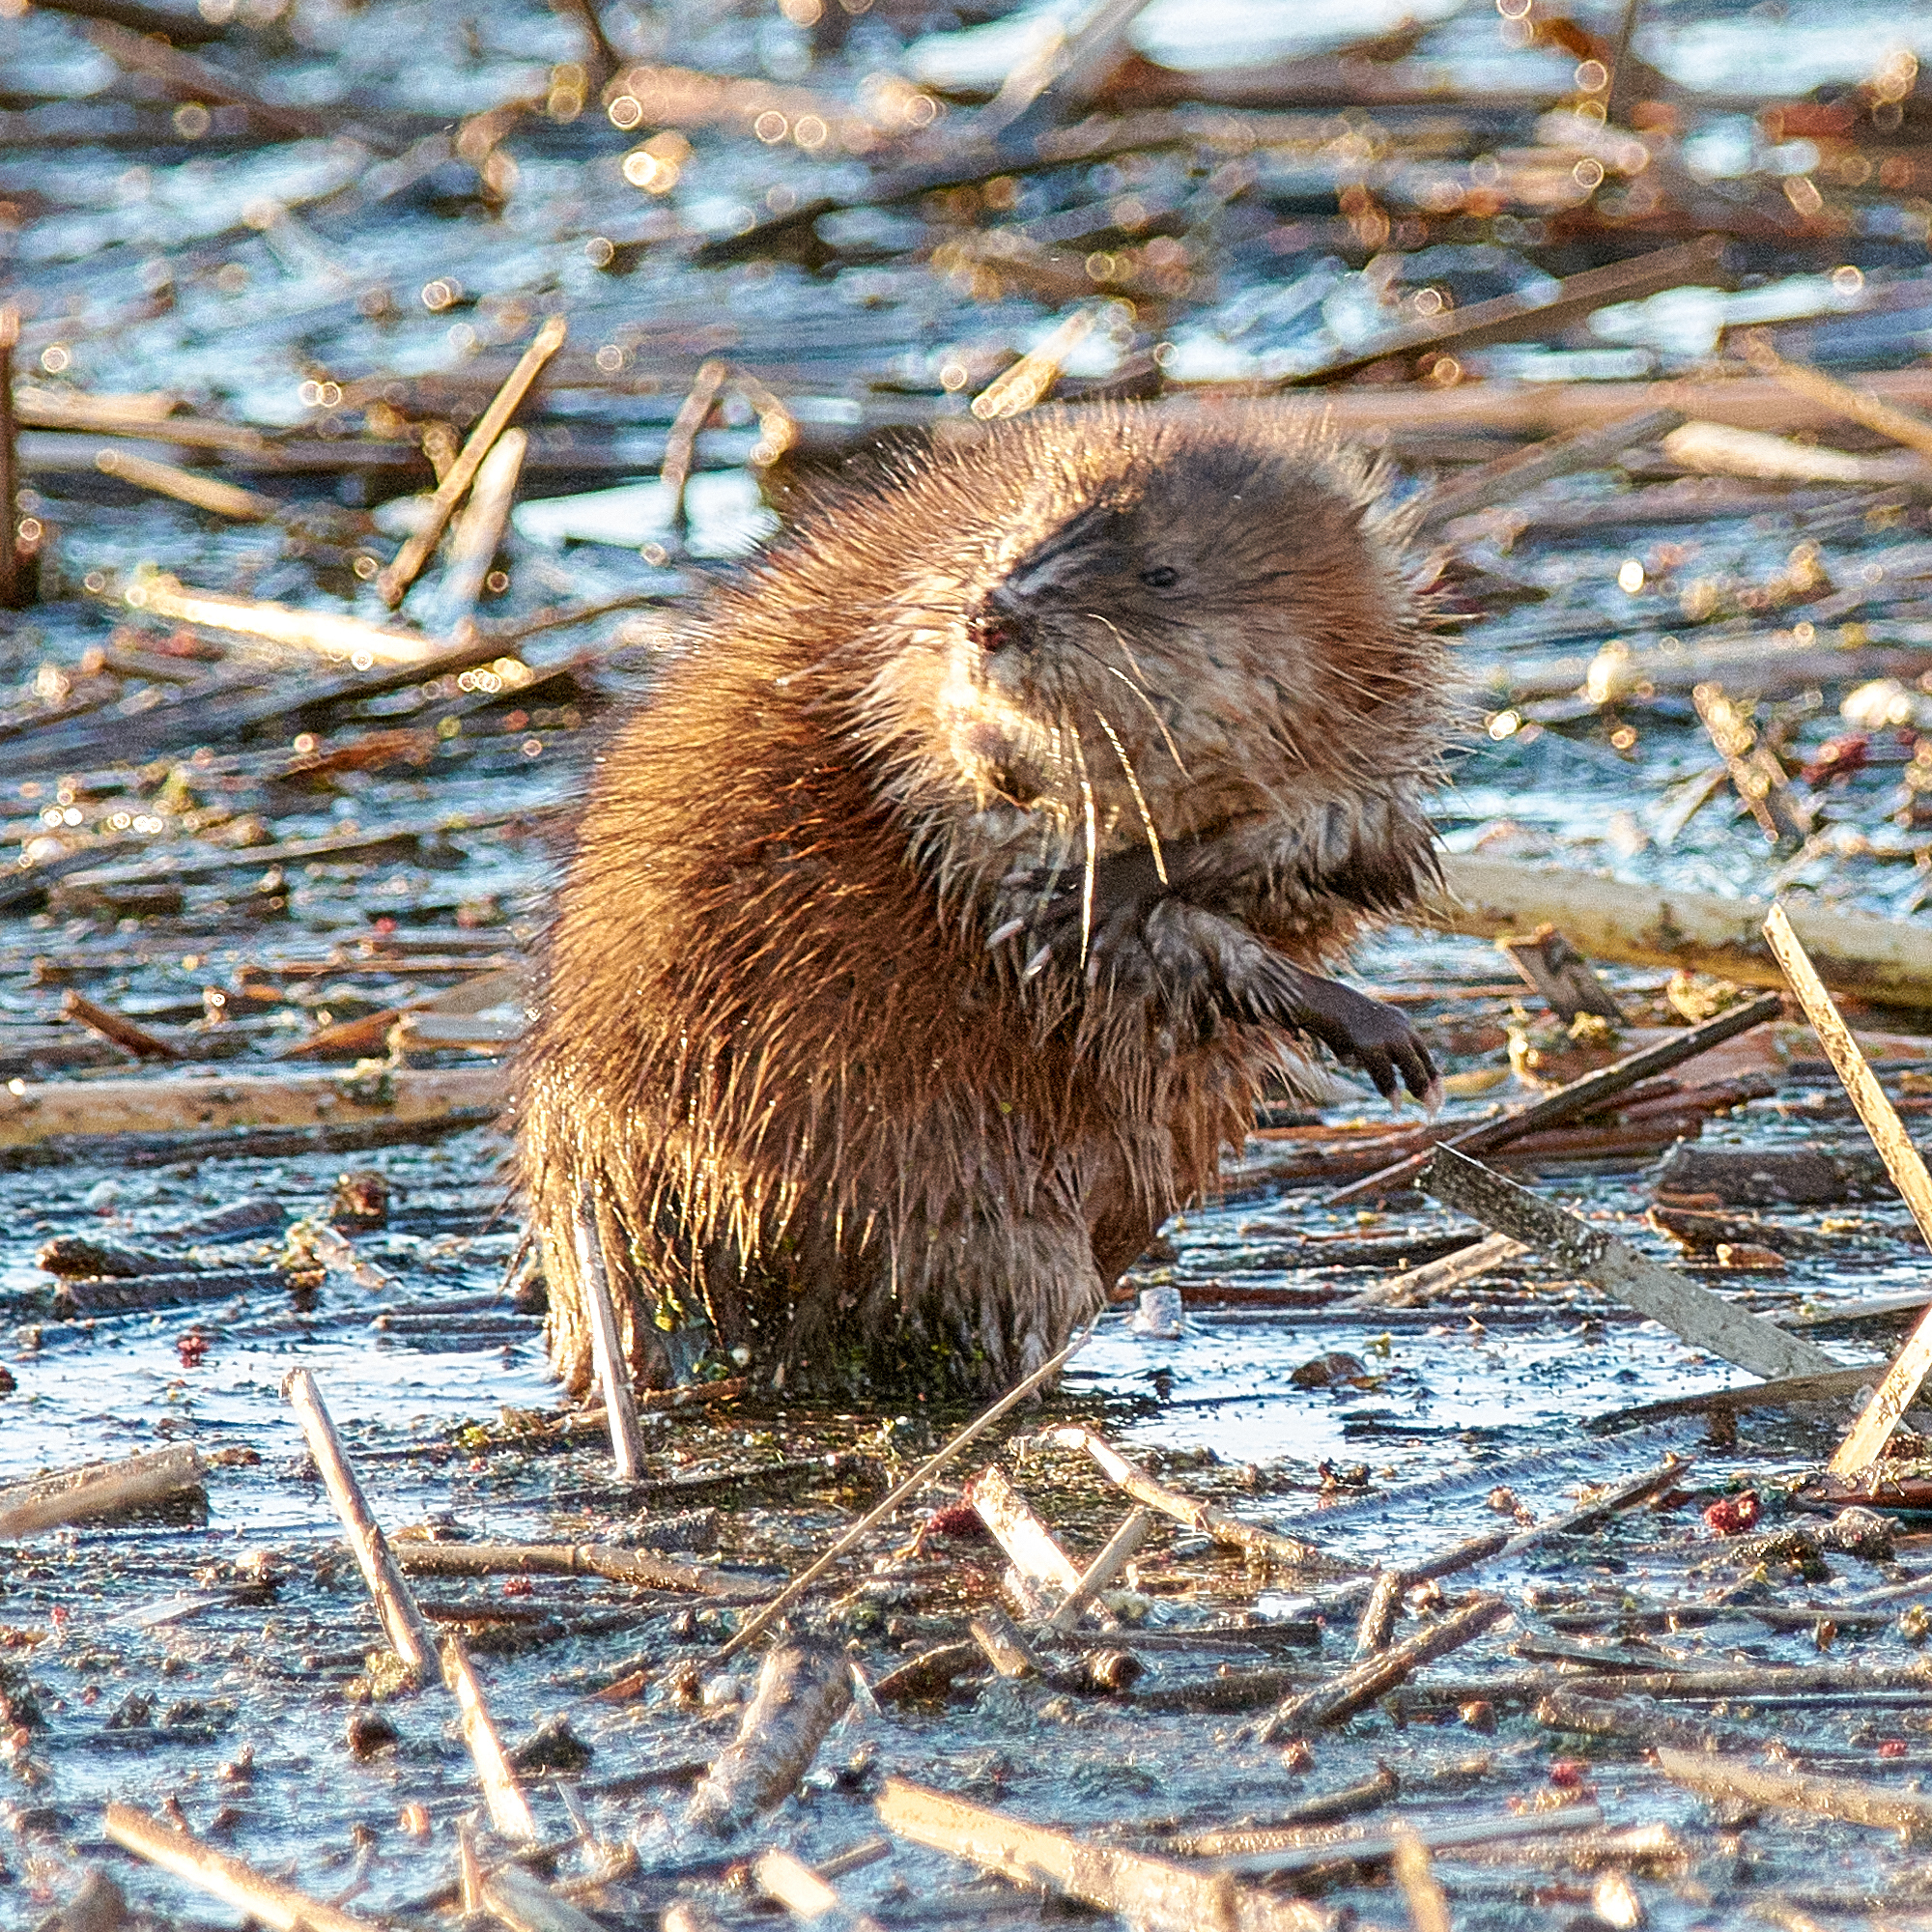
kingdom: Animalia
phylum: Chordata
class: Mammalia
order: Rodentia
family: Cricetidae
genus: Ondatra
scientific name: Ondatra zibethicus
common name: Muskrat
